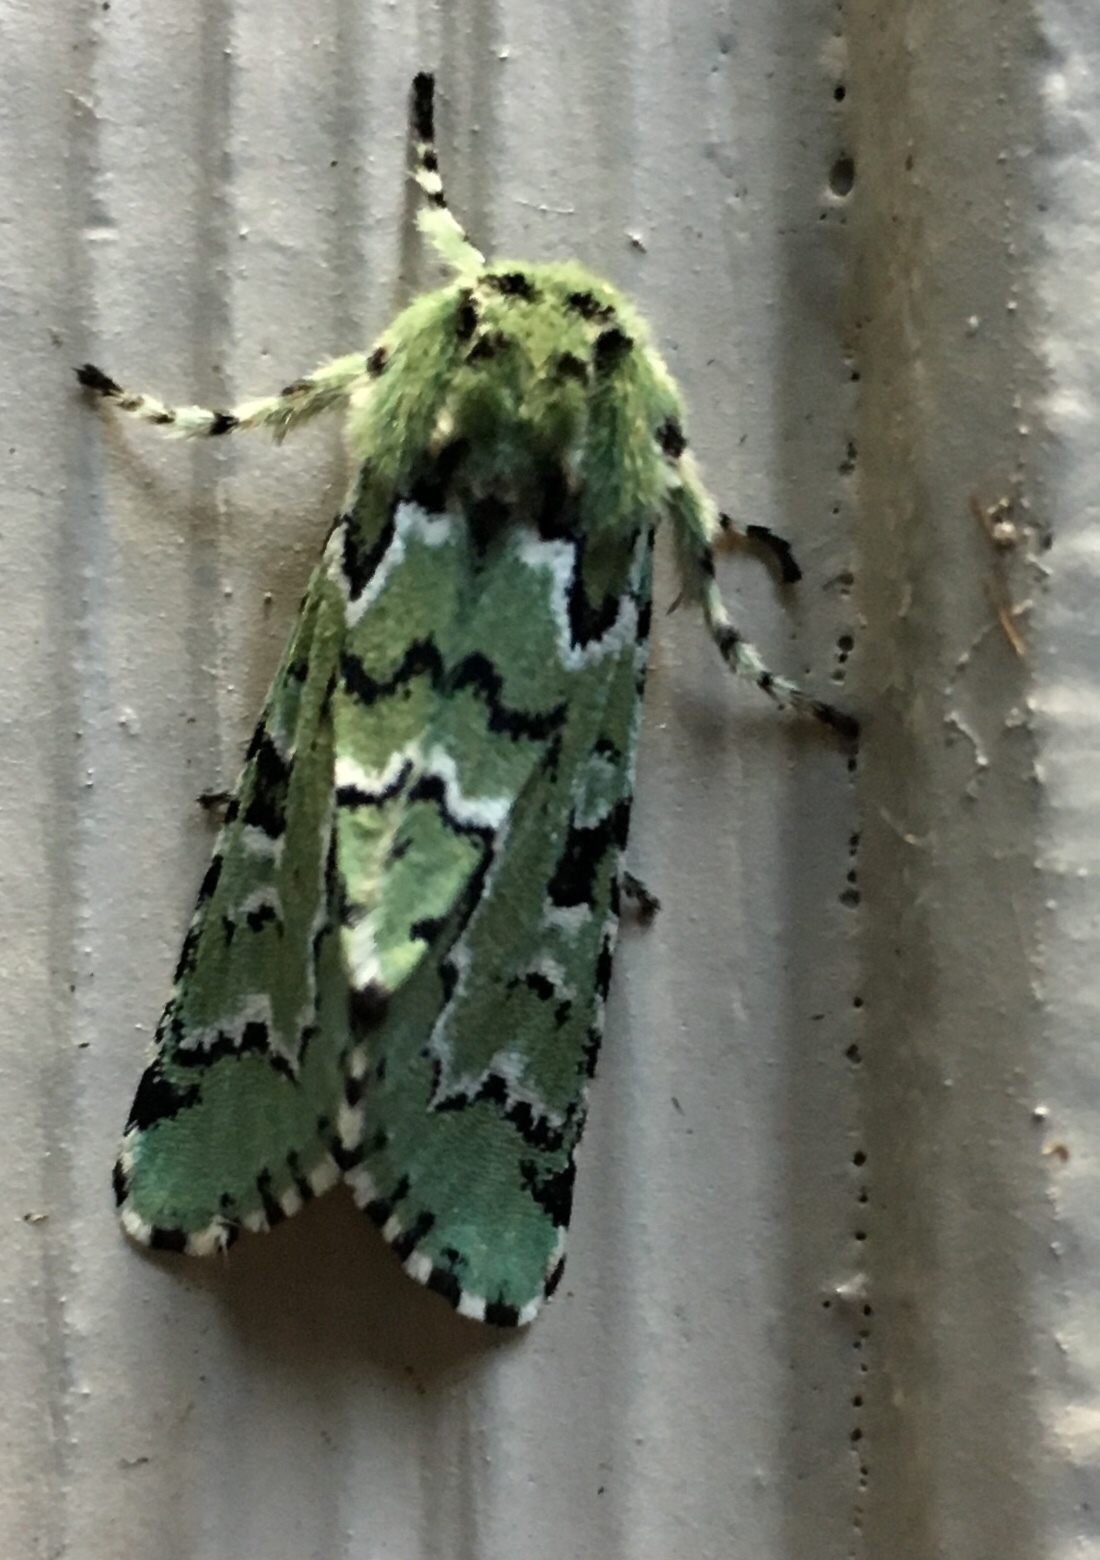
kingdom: Animalia
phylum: Arthropoda
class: Insecta
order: Lepidoptera
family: Noctuidae
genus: Feralia
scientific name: Feralia deceptiva
